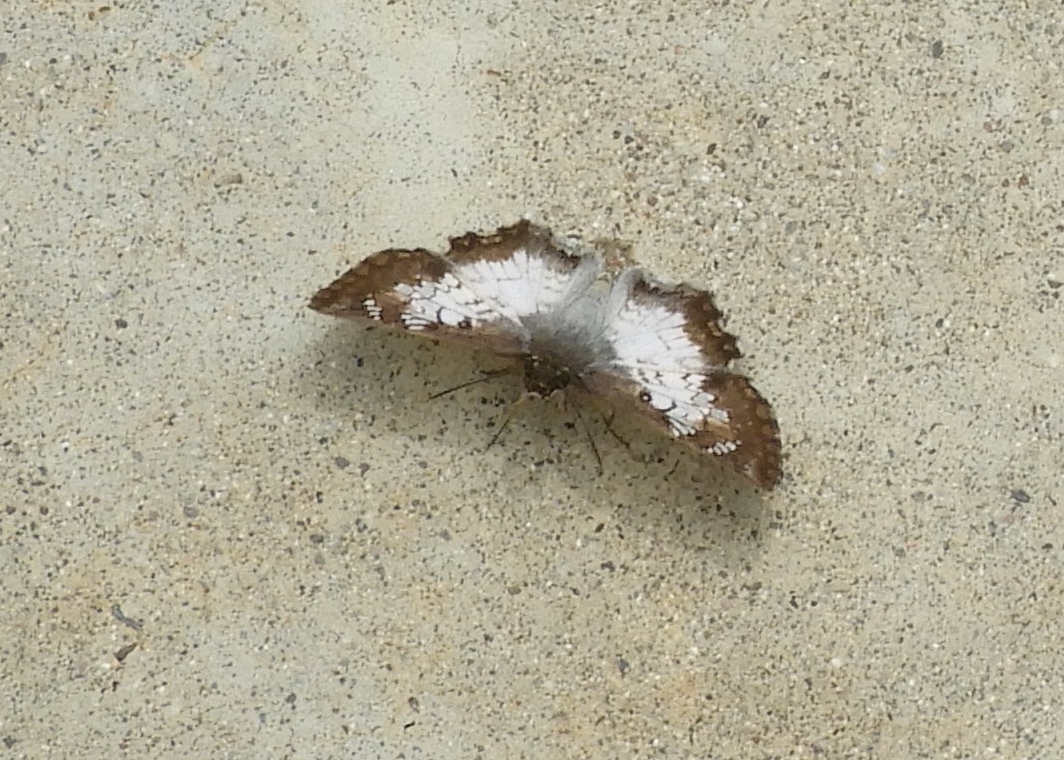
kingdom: Animalia
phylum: Arthropoda
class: Insecta
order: Lepidoptera
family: Hesperiidae
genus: Antigonus
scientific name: Antigonus emorsa
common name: White spurwing
